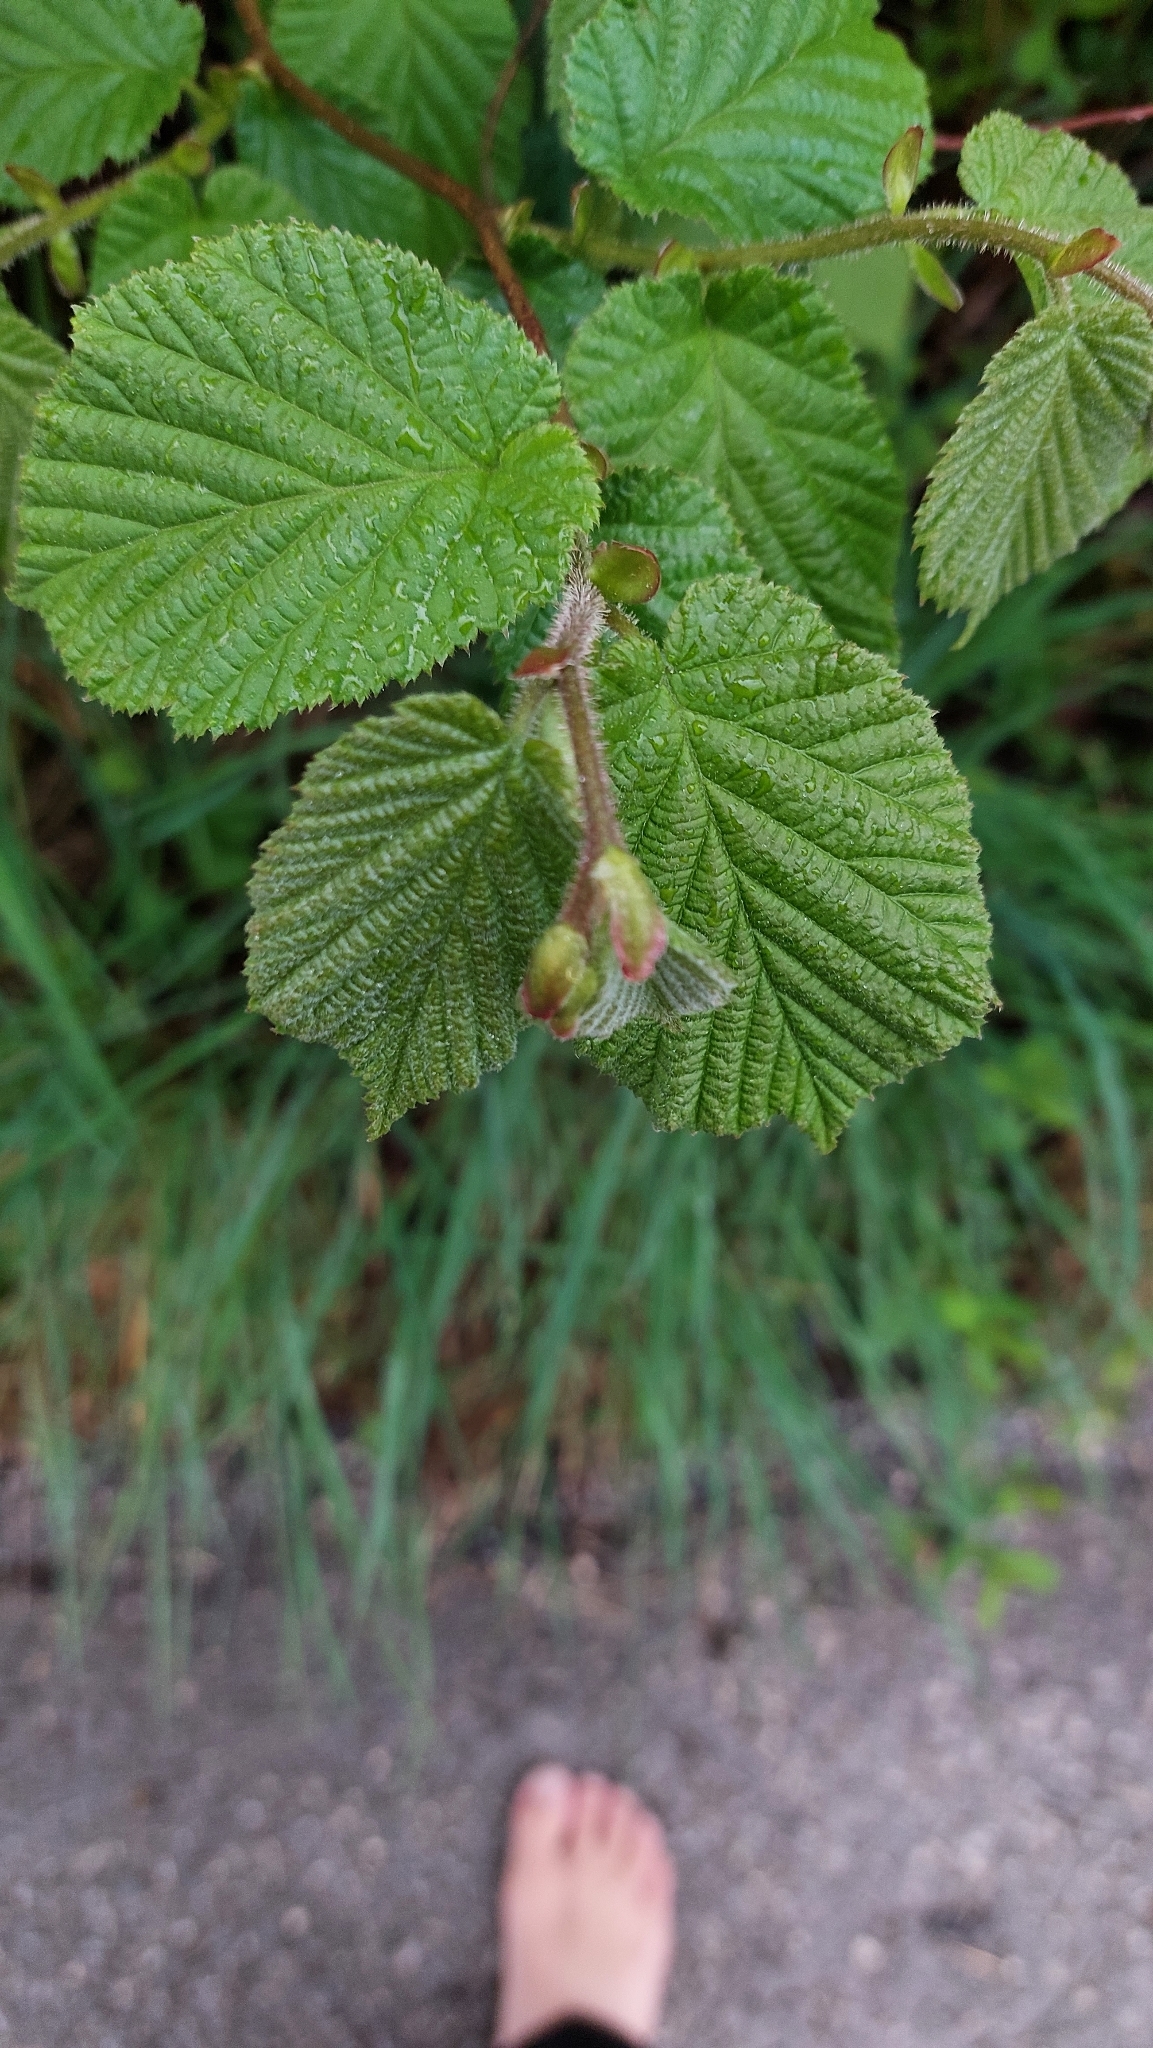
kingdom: Plantae
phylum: Tracheophyta
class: Magnoliopsida
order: Fagales
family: Betulaceae
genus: Corylus
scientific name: Corylus avellana
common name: European hazel
